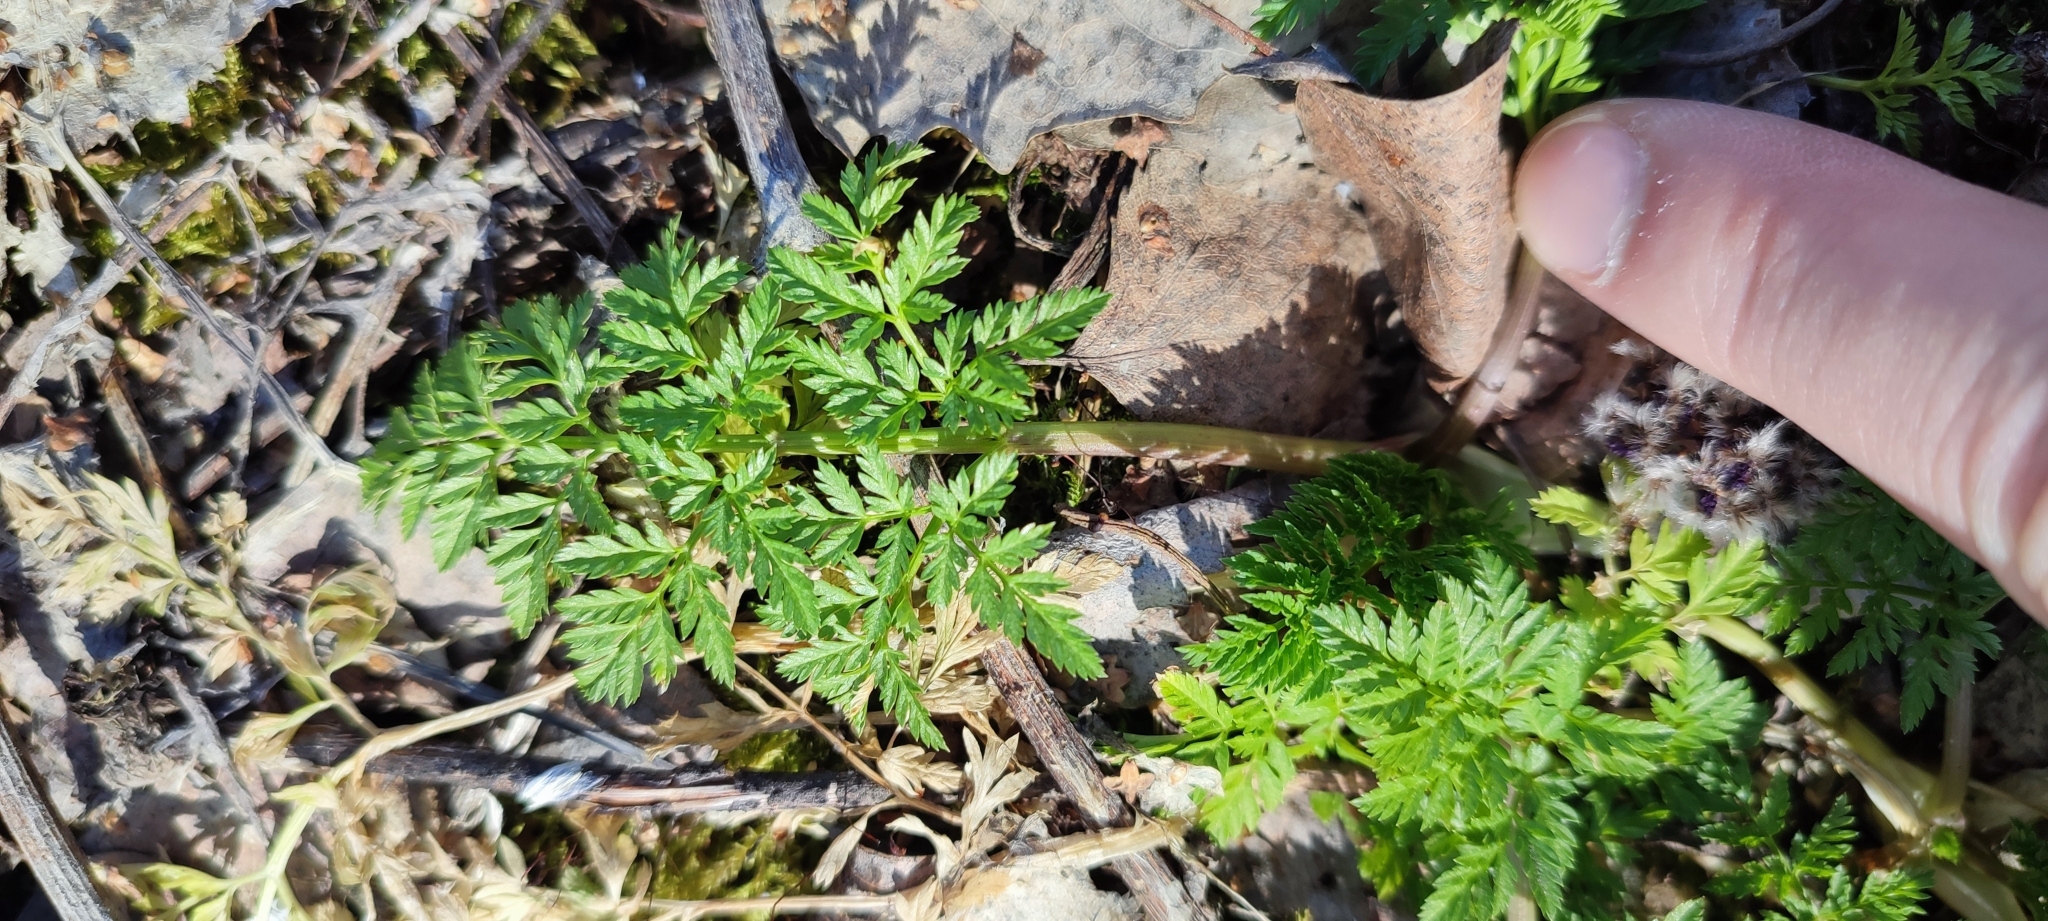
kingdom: Plantae
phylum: Tracheophyta
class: Magnoliopsida
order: Apiales
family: Apiaceae
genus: Anthriscus
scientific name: Anthriscus sylvestris
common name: Cow parsley
